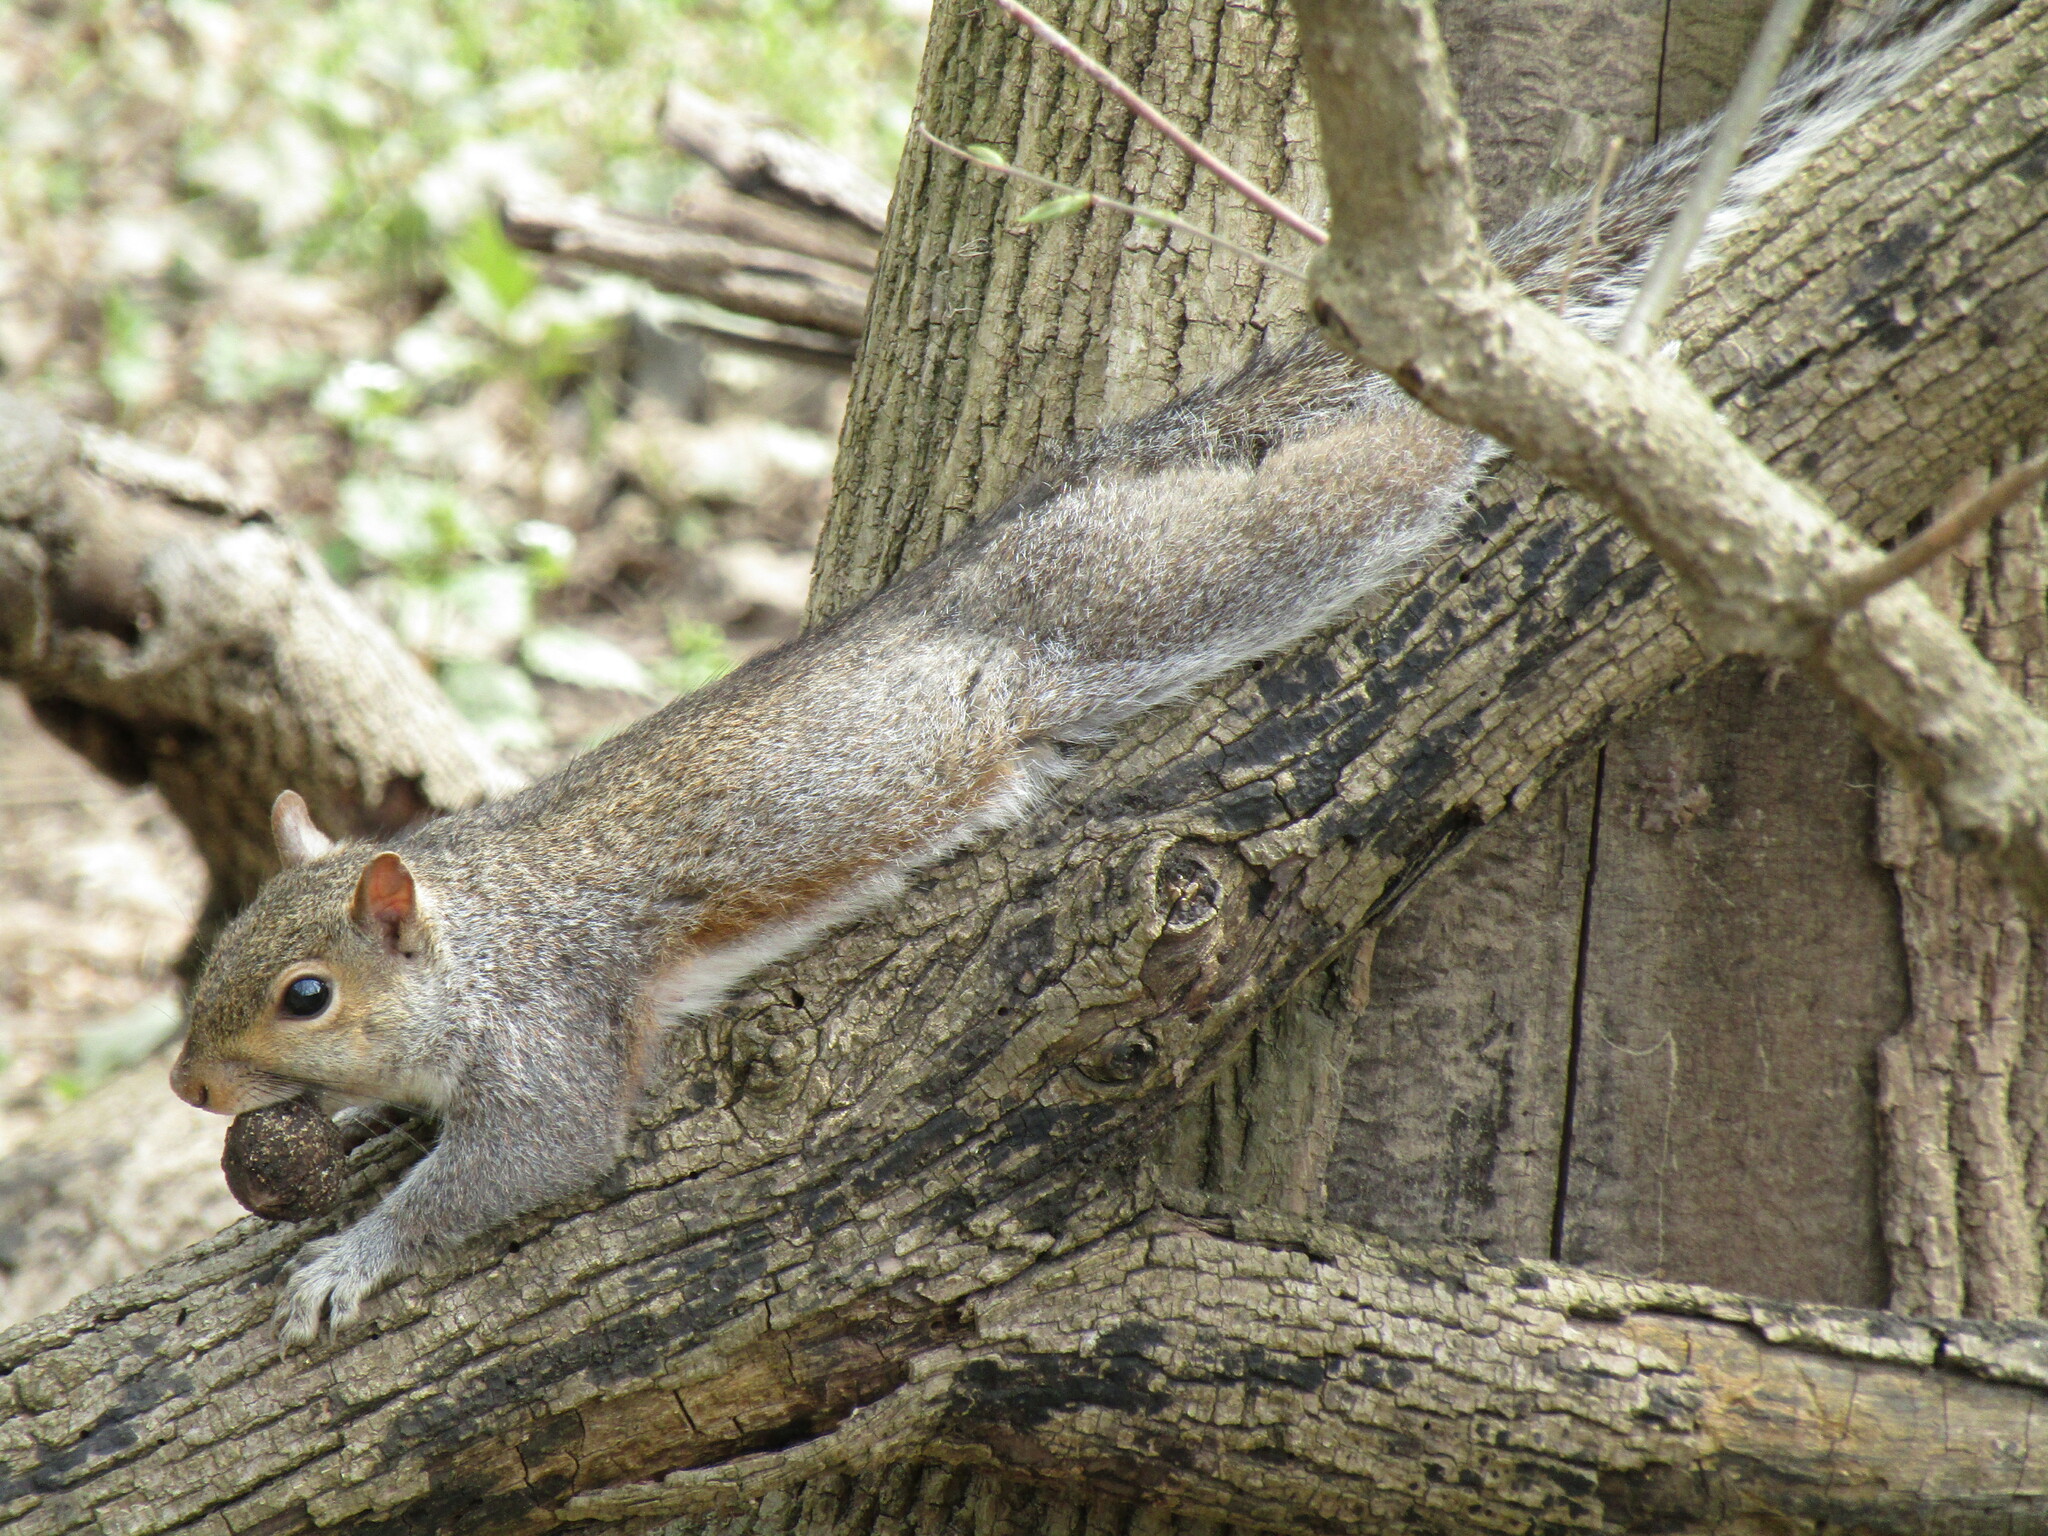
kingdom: Animalia
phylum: Chordata
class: Mammalia
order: Rodentia
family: Sciuridae
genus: Sciurus
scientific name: Sciurus carolinensis
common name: Eastern gray squirrel
